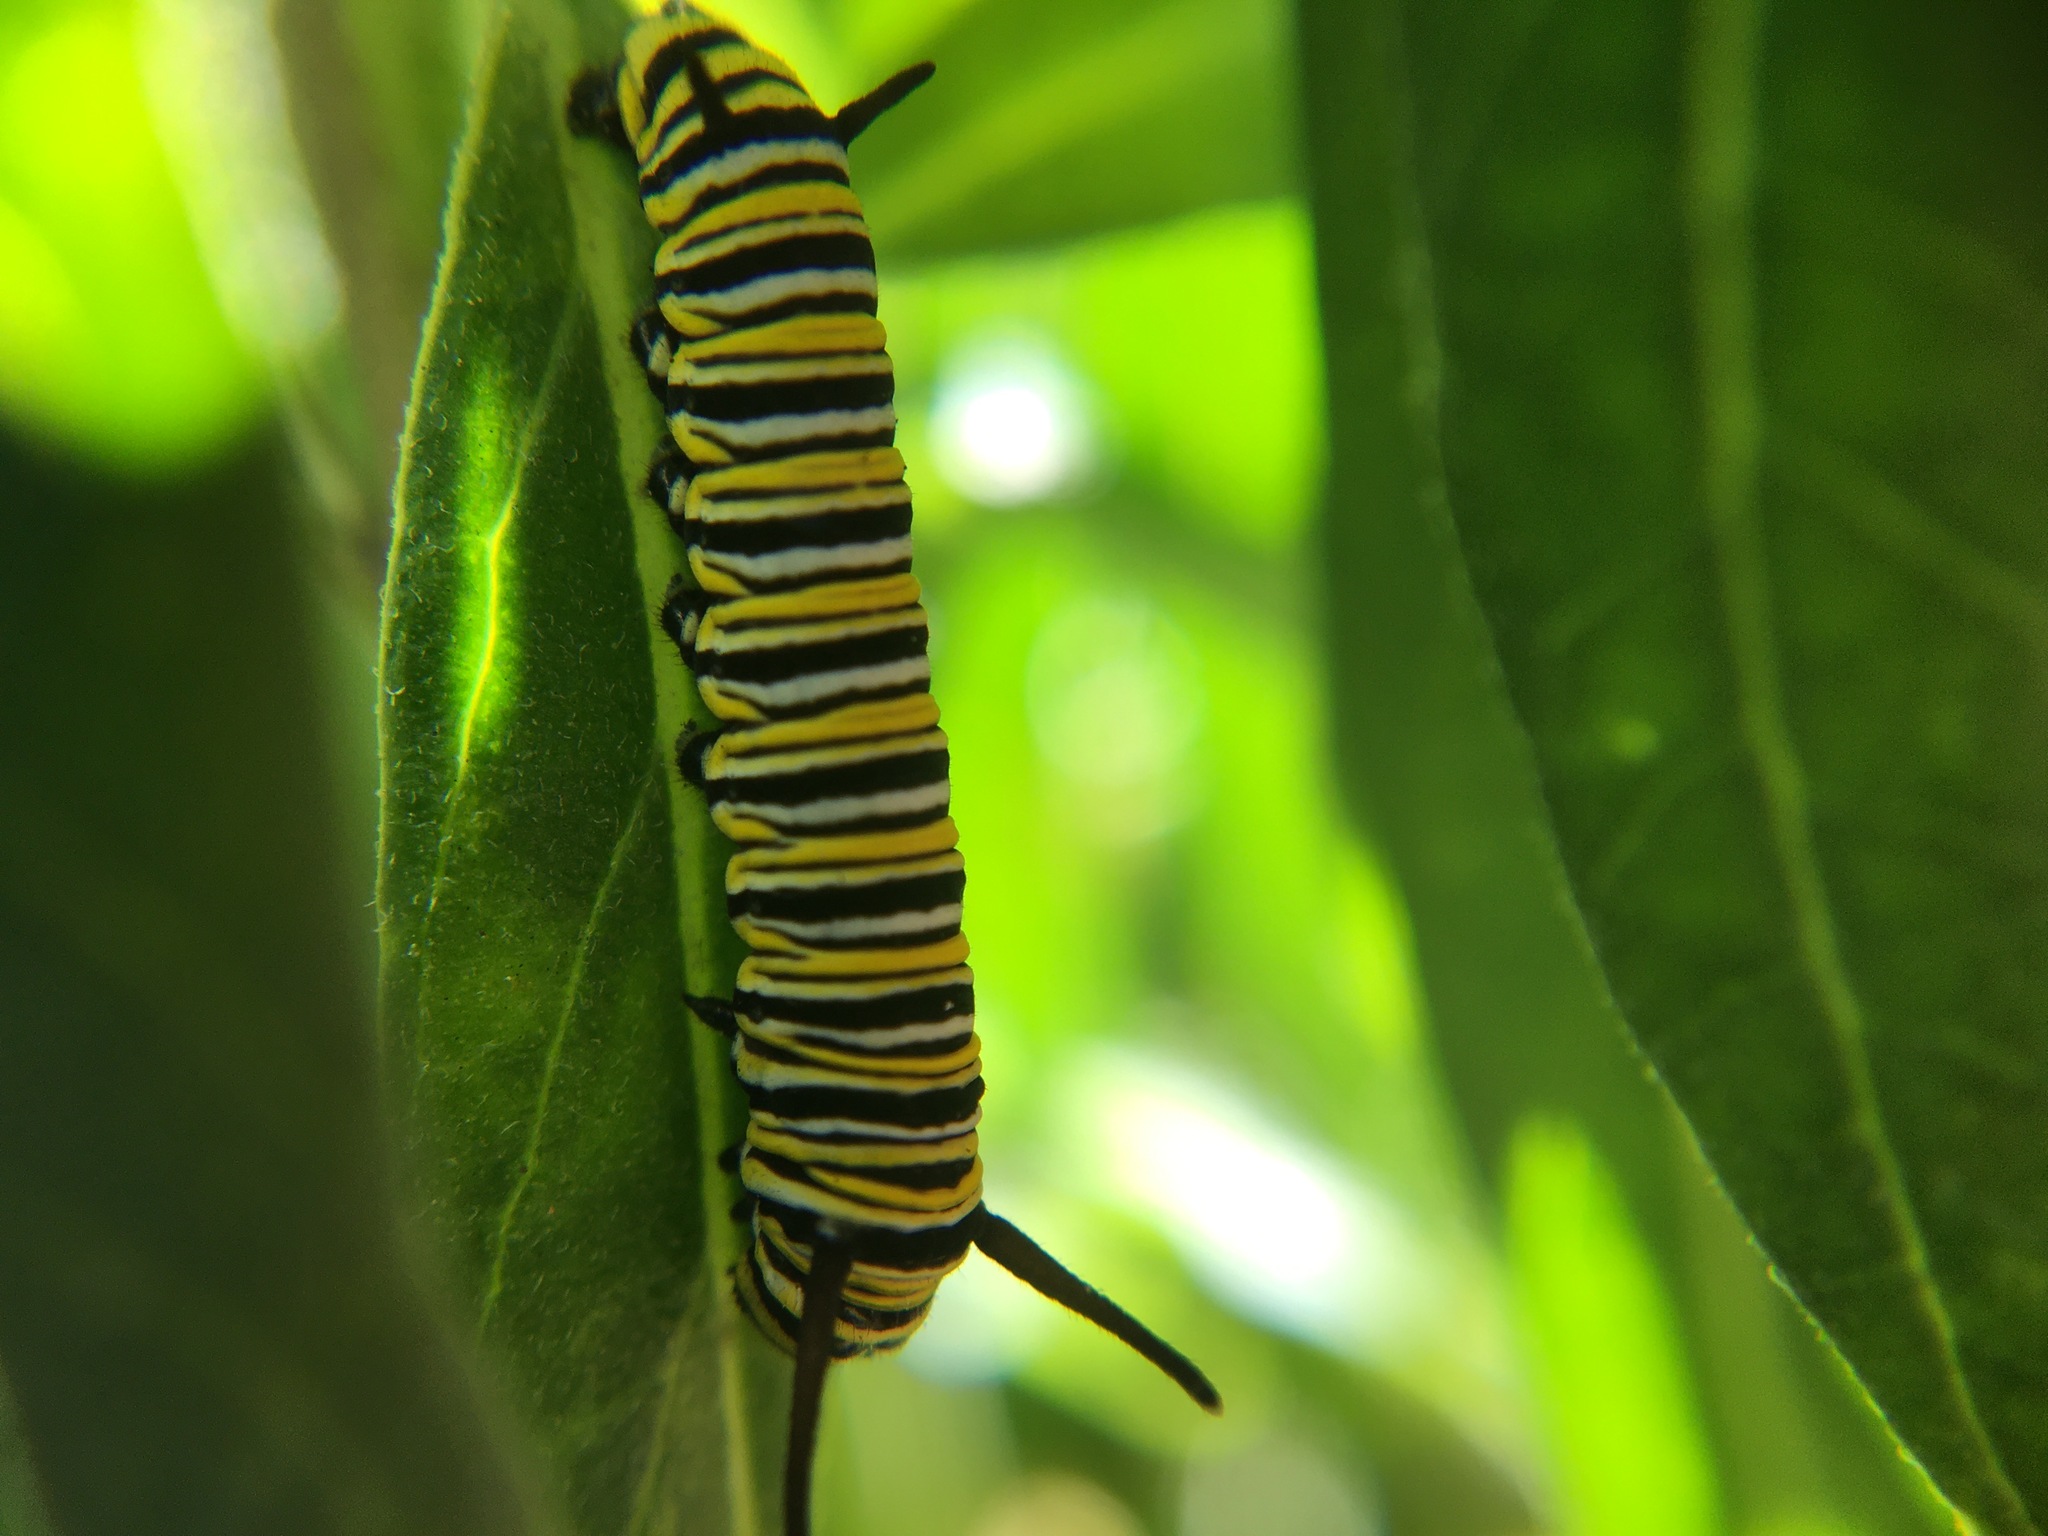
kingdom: Animalia
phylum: Arthropoda
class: Insecta
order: Lepidoptera
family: Nymphalidae
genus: Danaus
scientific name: Danaus plexippus
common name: Monarch
